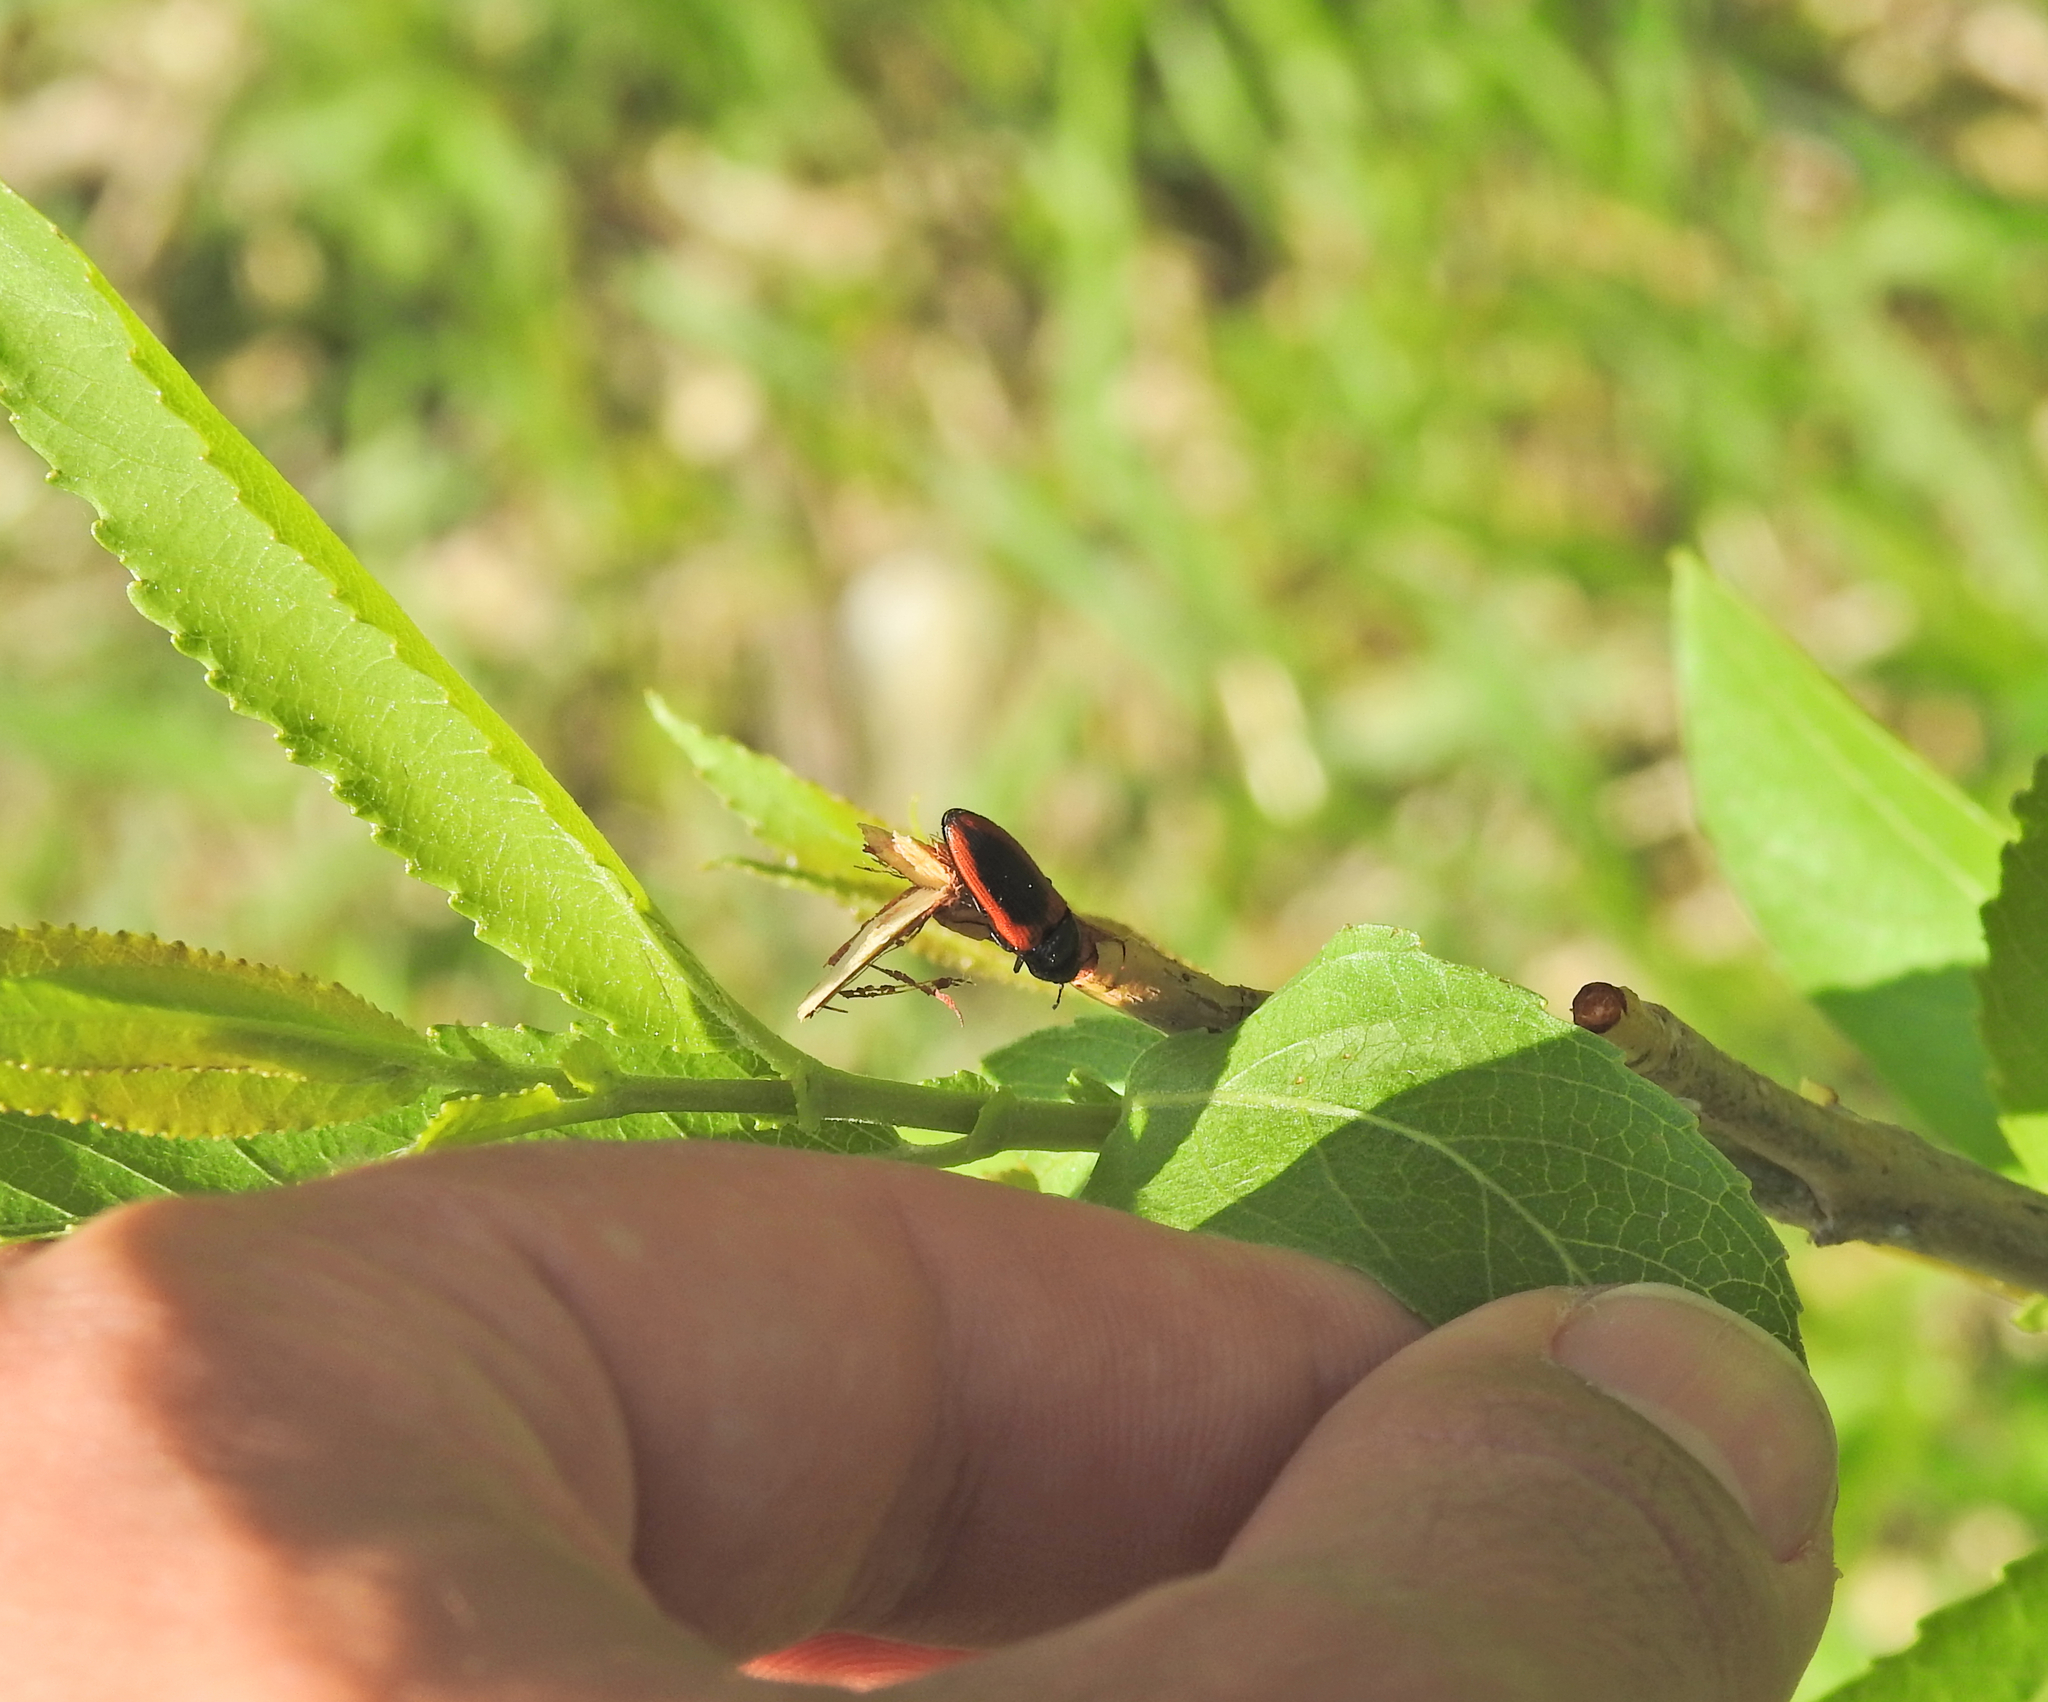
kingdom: Animalia
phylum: Arthropoda
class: Insecta
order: Coleoptera
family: Elateridae
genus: Ampedus
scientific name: Ampedus sanguinolentus
